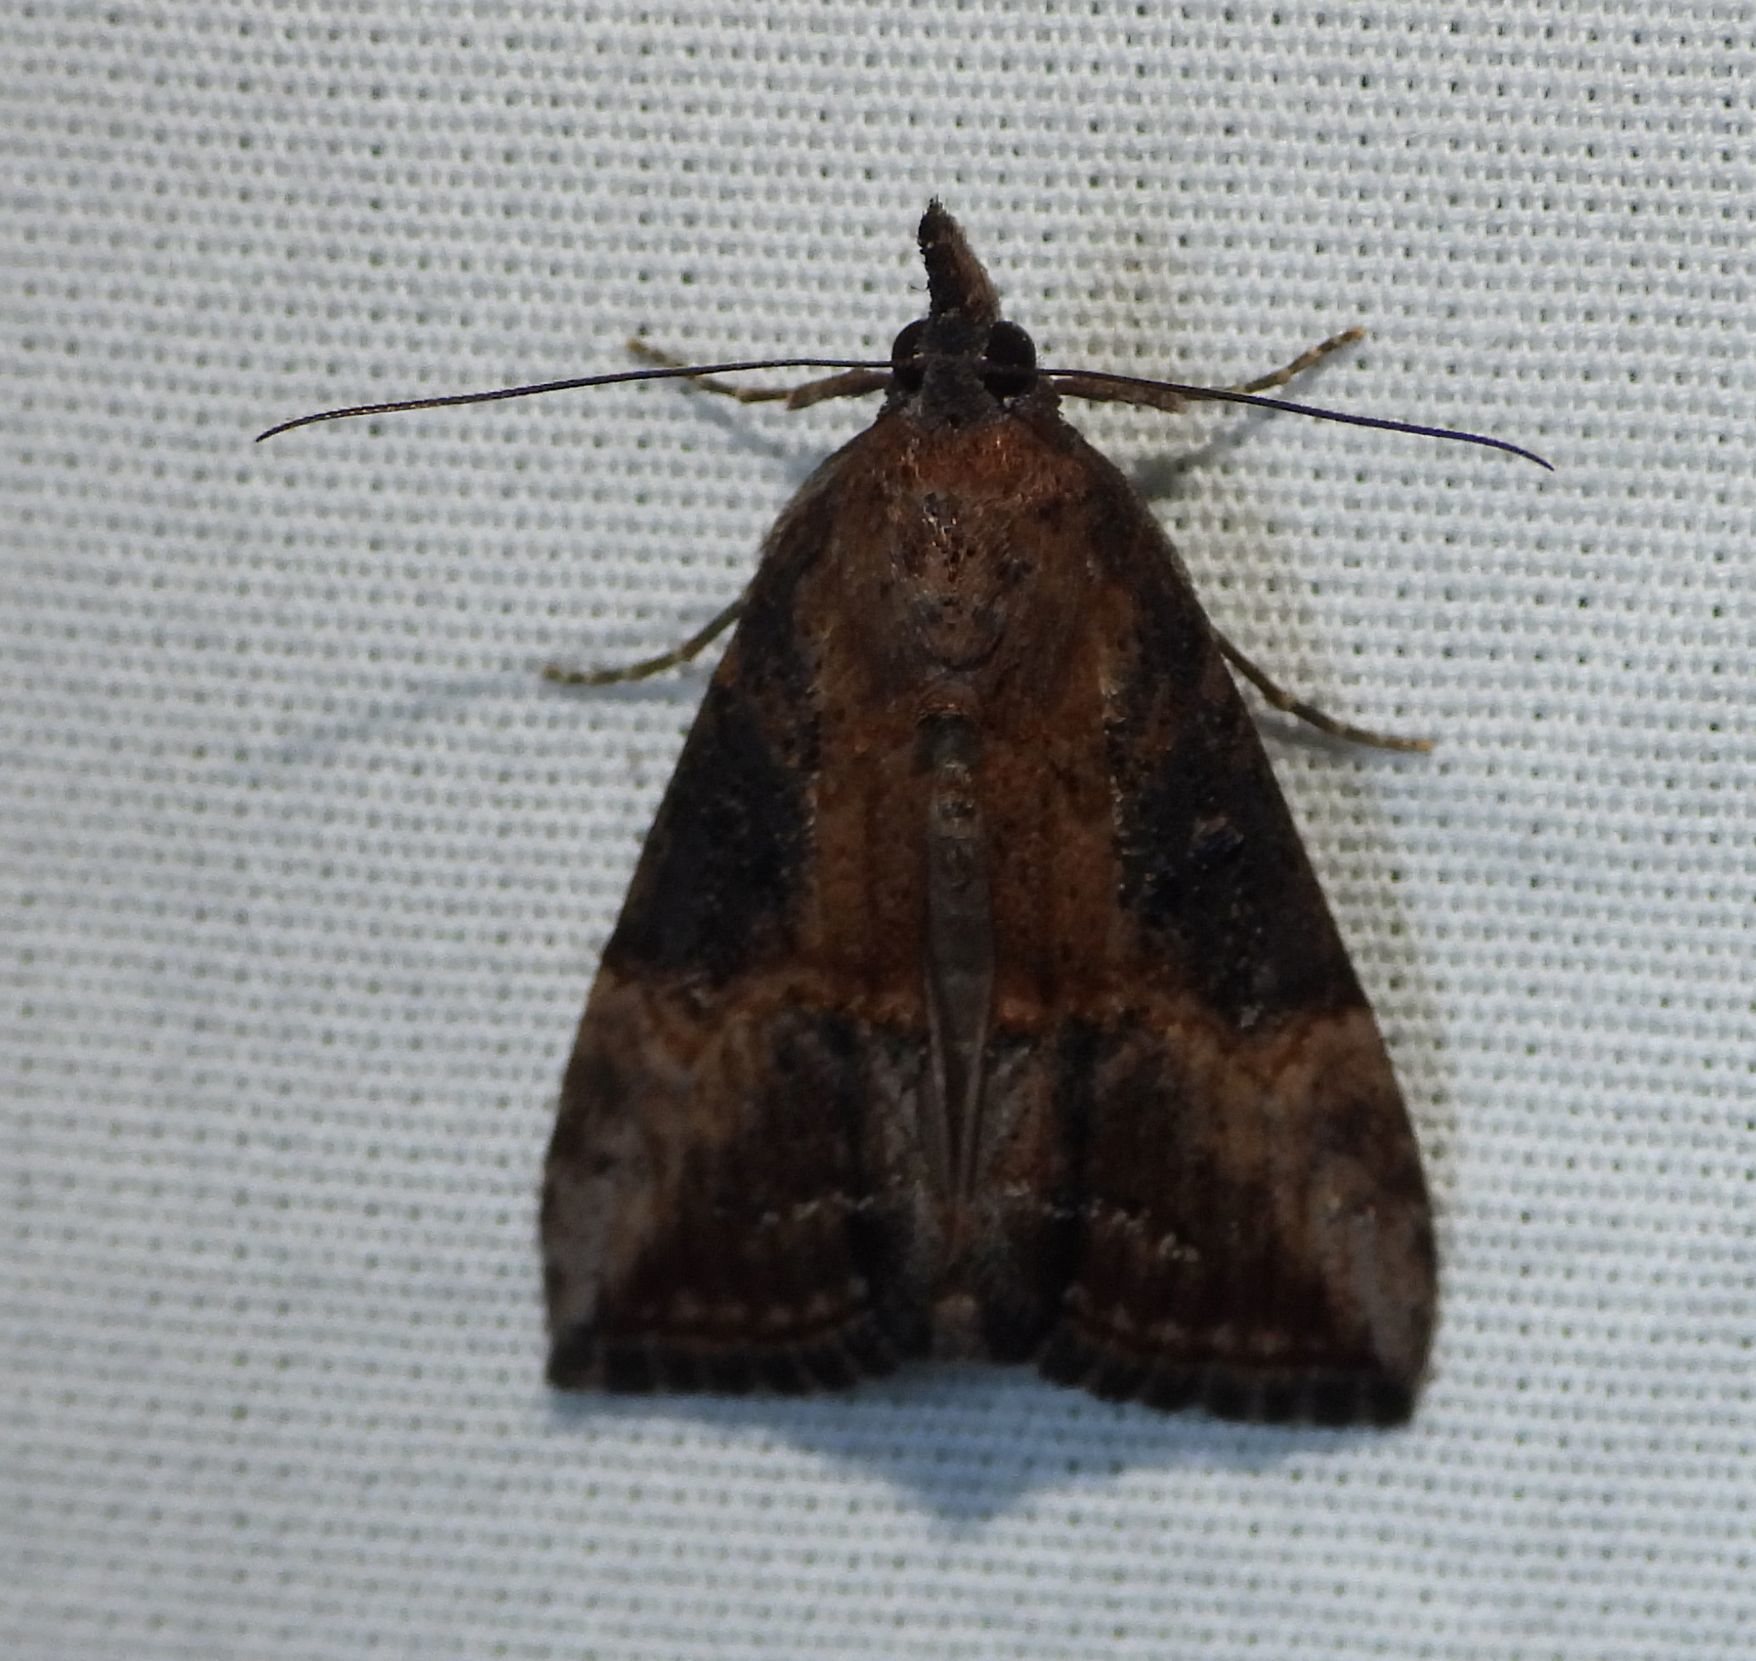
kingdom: Animalia
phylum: Arthropoda
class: Insecta
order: Lepidoptera
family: Erebidae
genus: Hypena
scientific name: Hypena scabra
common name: Green cloverworm
